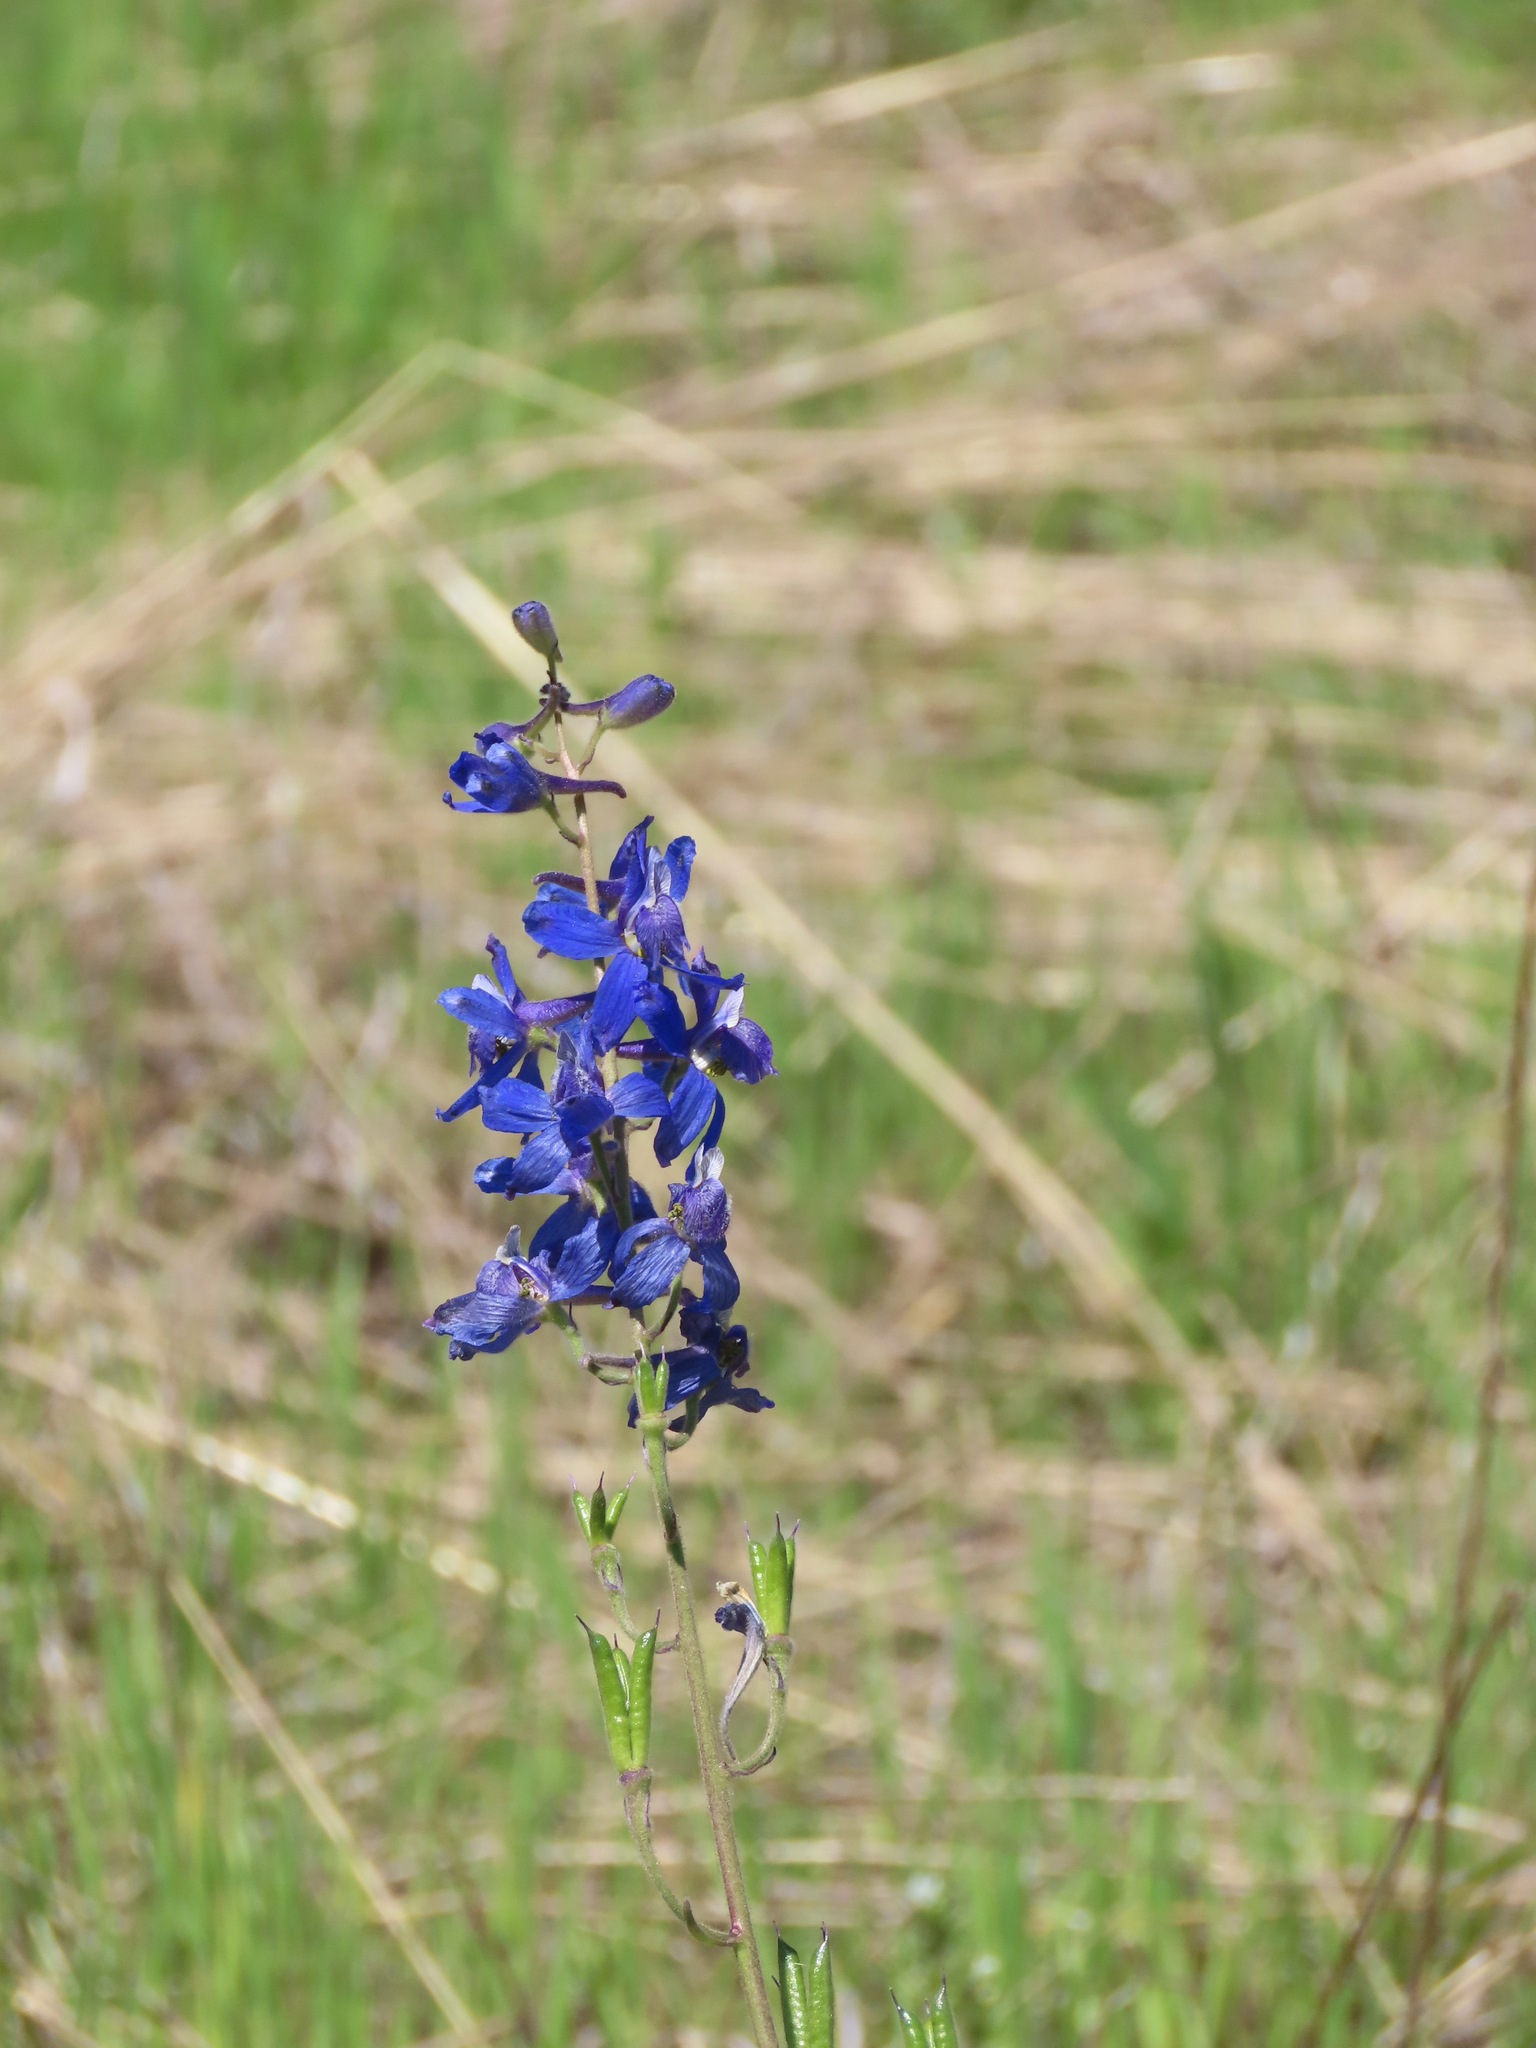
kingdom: Plantae
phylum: Tracheophyta
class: Magnoliopsida
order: Ranunculales
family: Ranunculaceae
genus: Delphinium
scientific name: Delphinium nuttallianum
